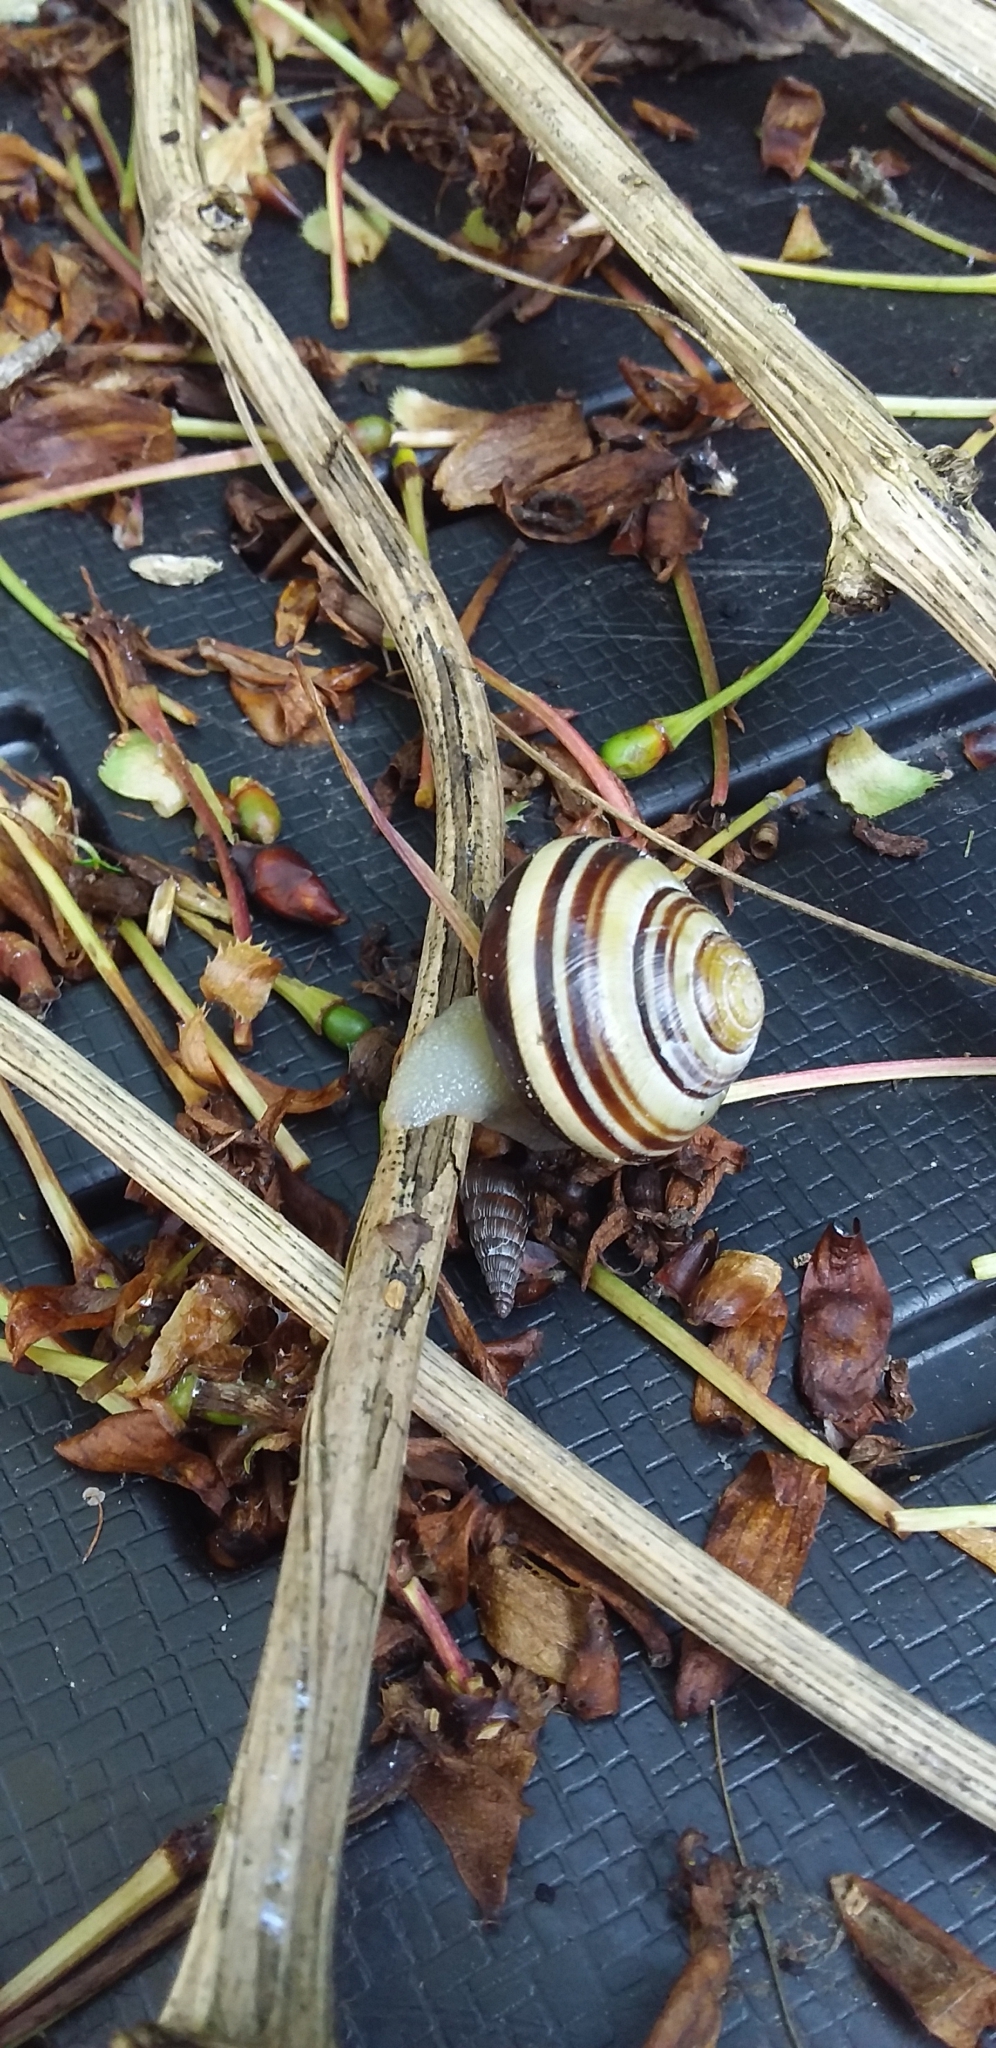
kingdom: Animalia
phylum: Mollusca
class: Gastropoda
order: Stylommatophora
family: Helicidae
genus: Cepaea
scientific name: Cepaea nemoralis
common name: Grovesnail
